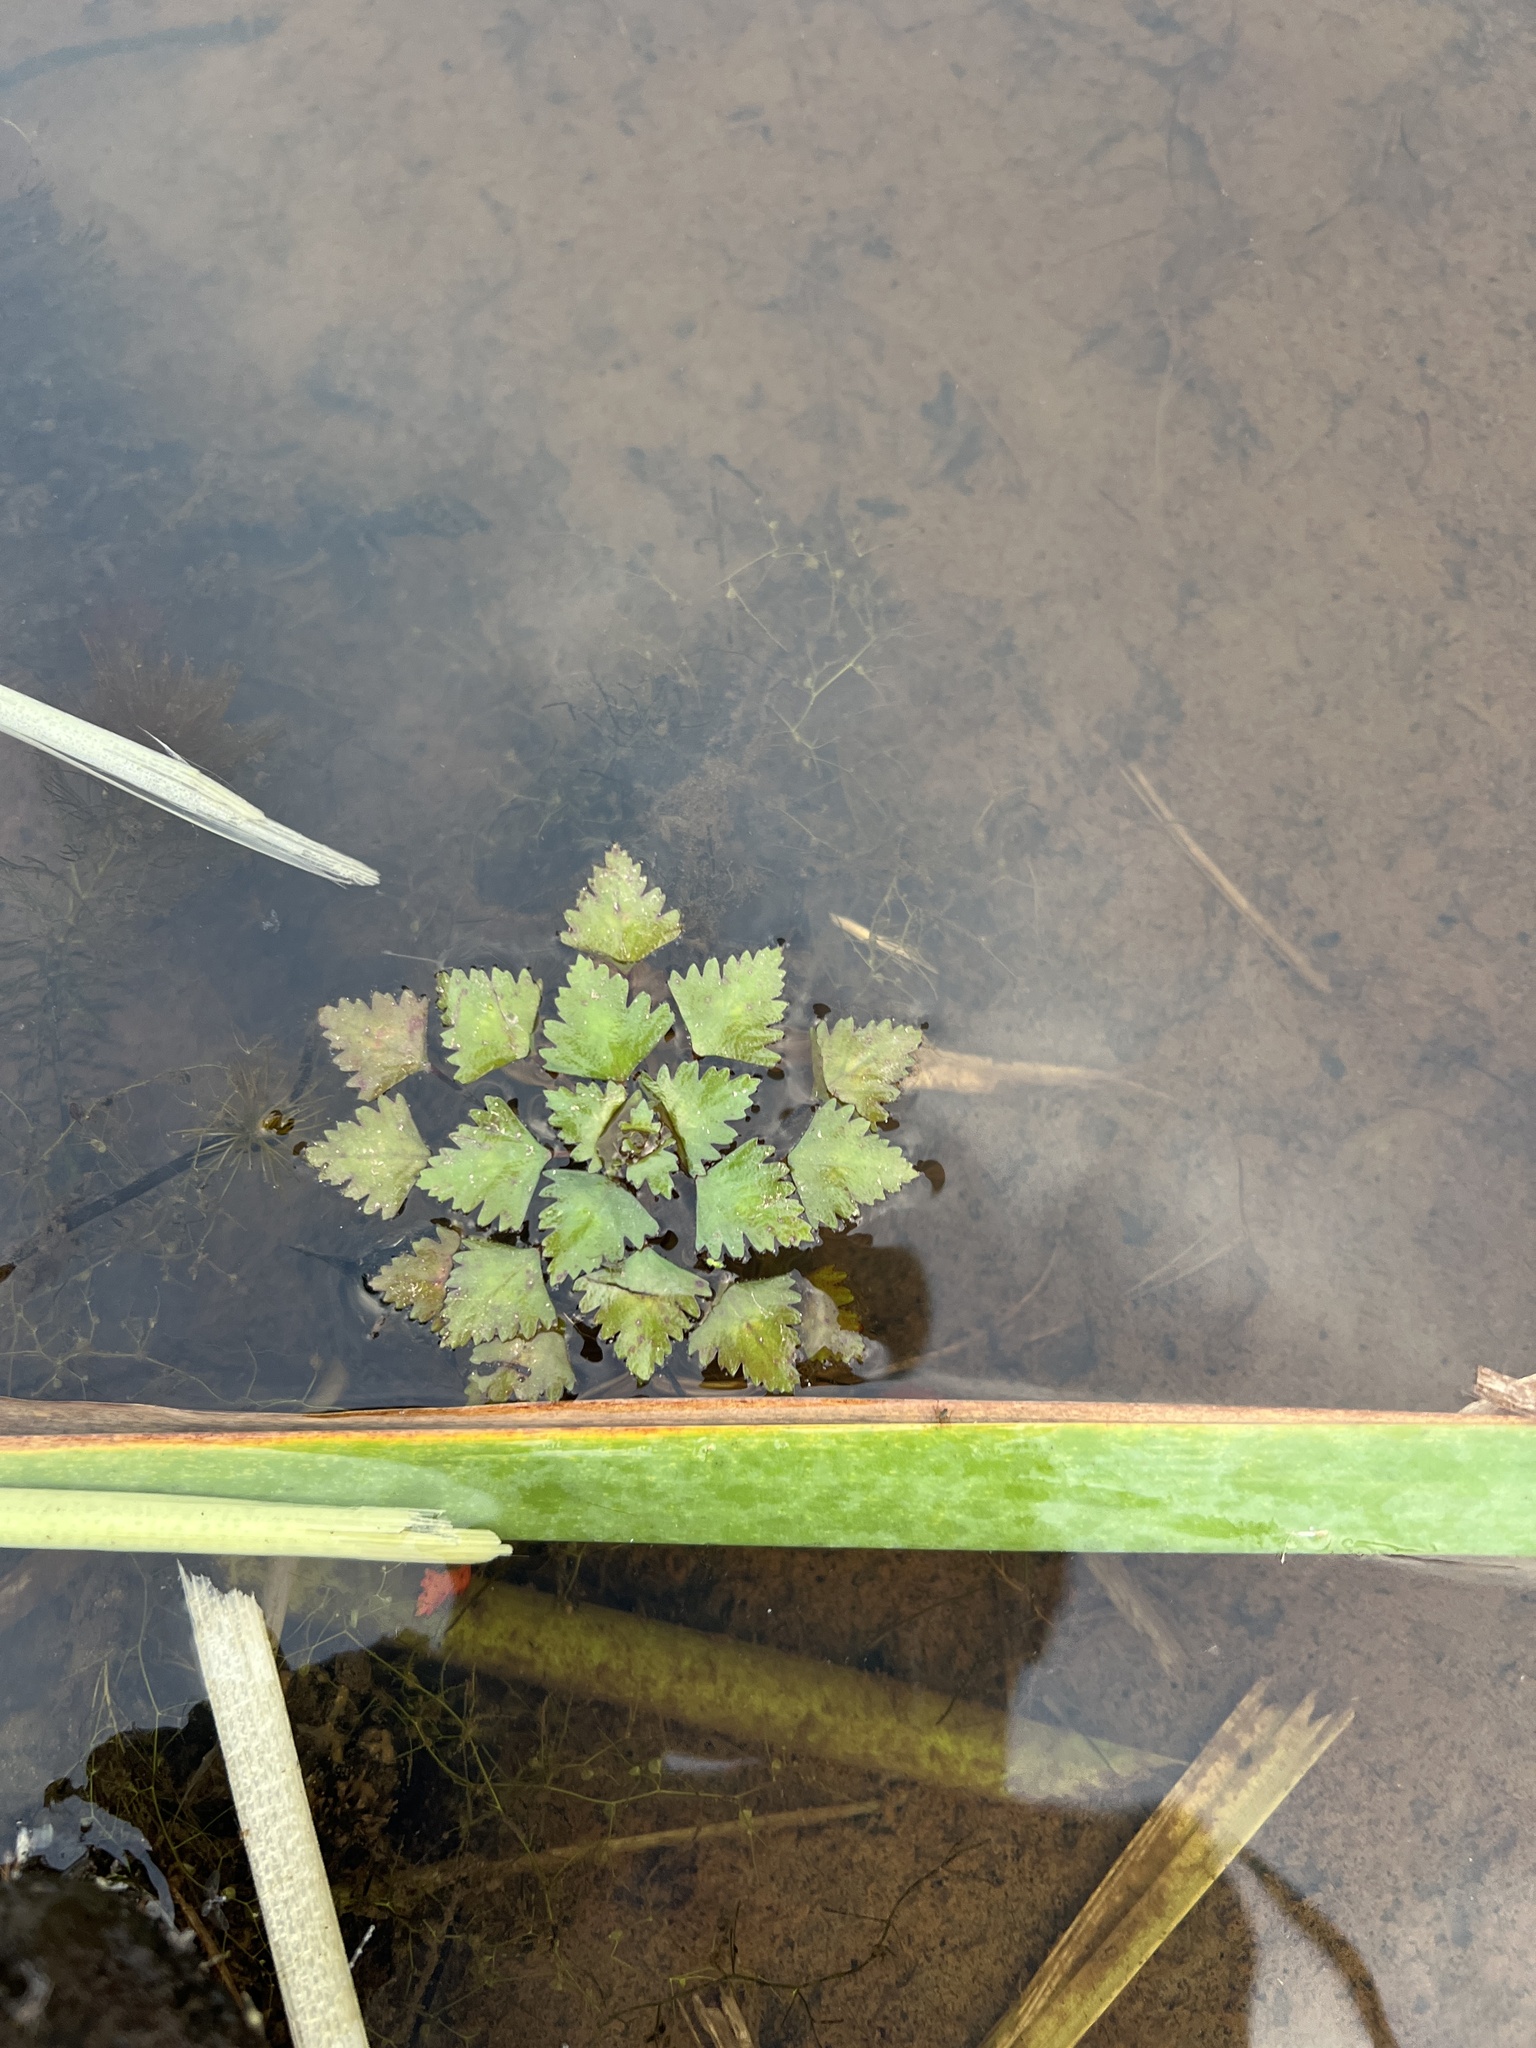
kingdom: Plantae
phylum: Tracheophyta
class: Magnoliopsida
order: Myrtales
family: Lythraceae
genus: Trapa
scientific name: Trapa natans
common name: Water chestnut
